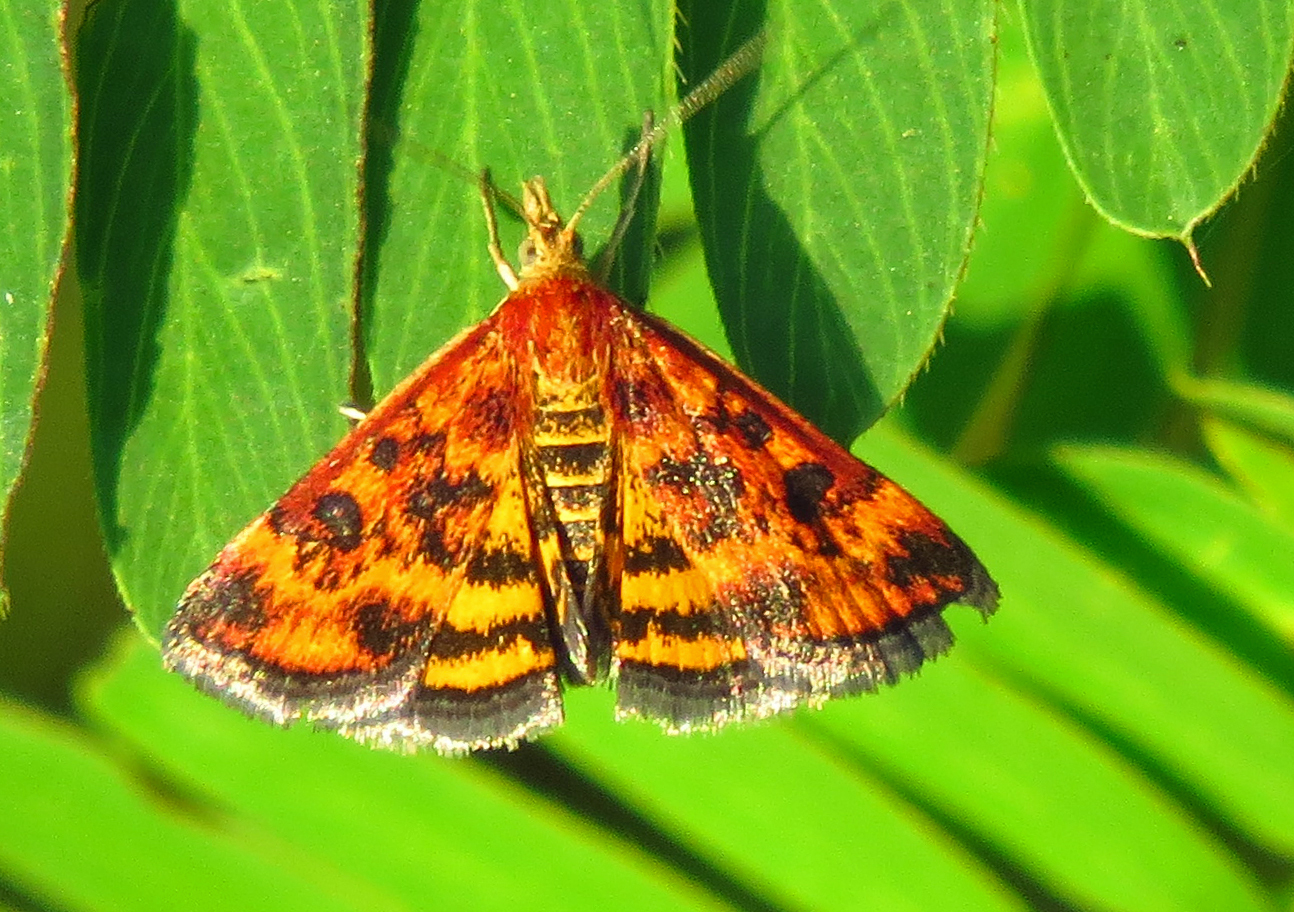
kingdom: Animalia
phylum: Arthropoda
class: Insecta
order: Lepidoptera
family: Crambidae
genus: Pyrausta
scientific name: Pyrausta subsequalis
